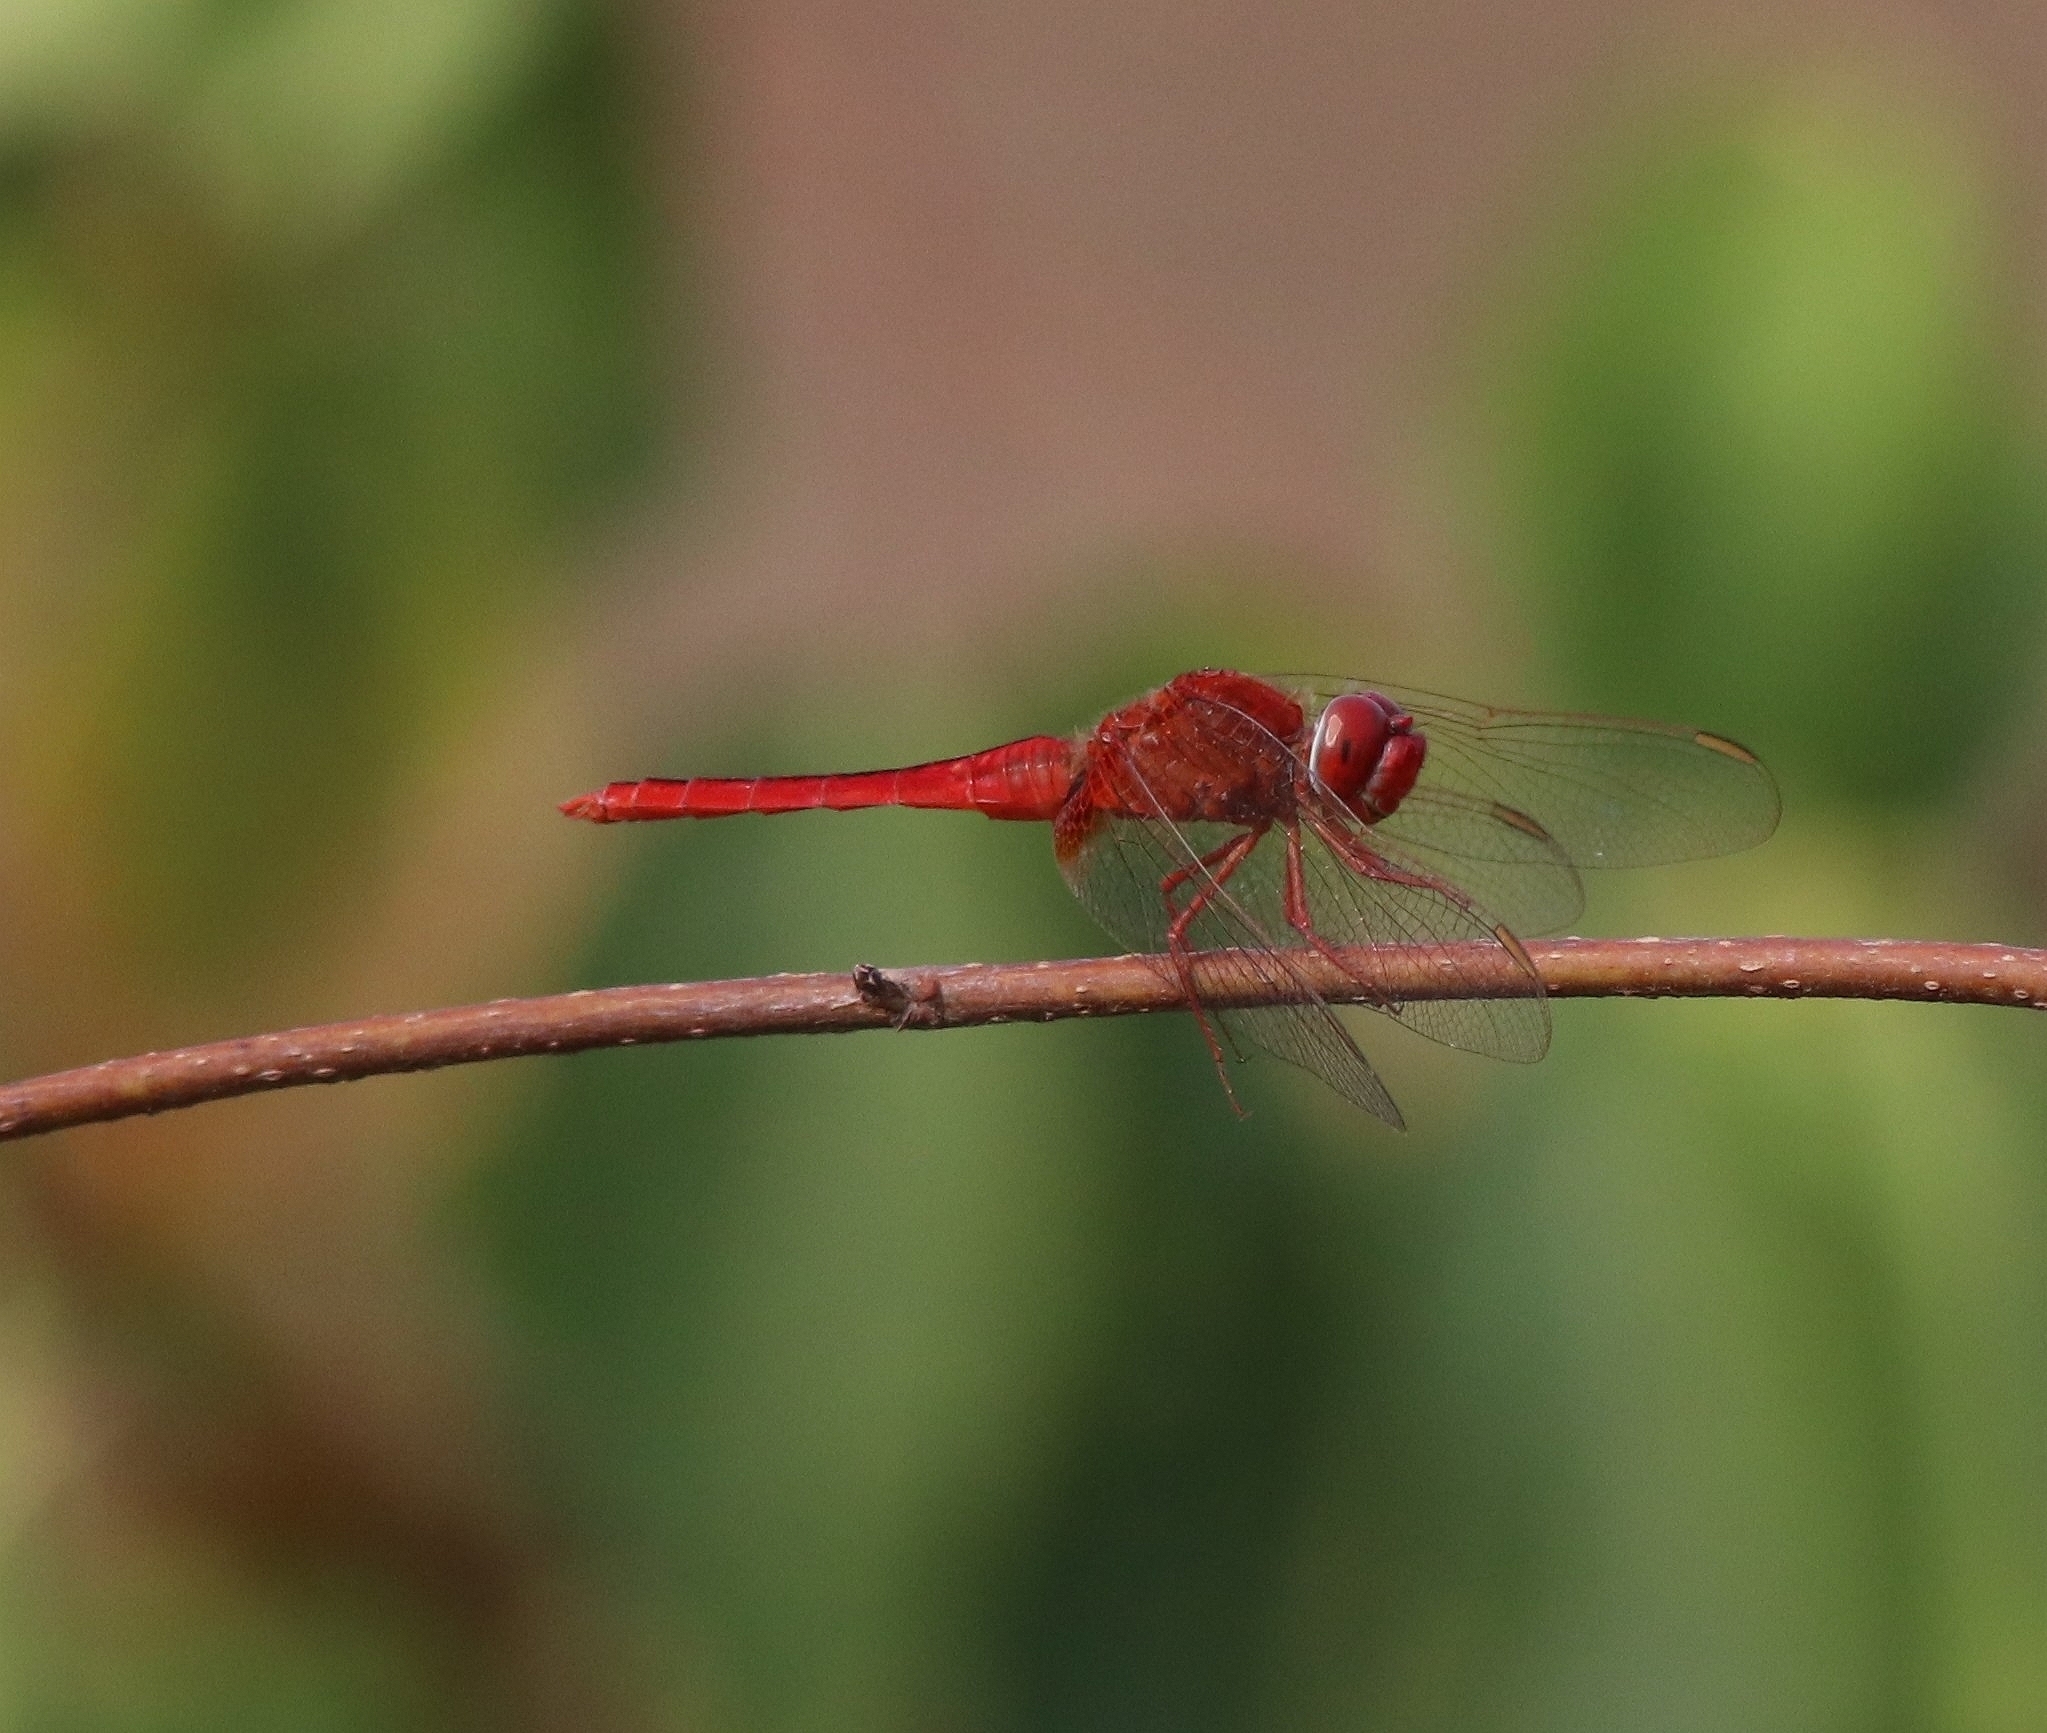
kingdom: Animalia
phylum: Arthropoda
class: Insecta
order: Odonata
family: Libellulidae
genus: Crocothemis
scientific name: Crocothemis servilia
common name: Scarlet skimmer
